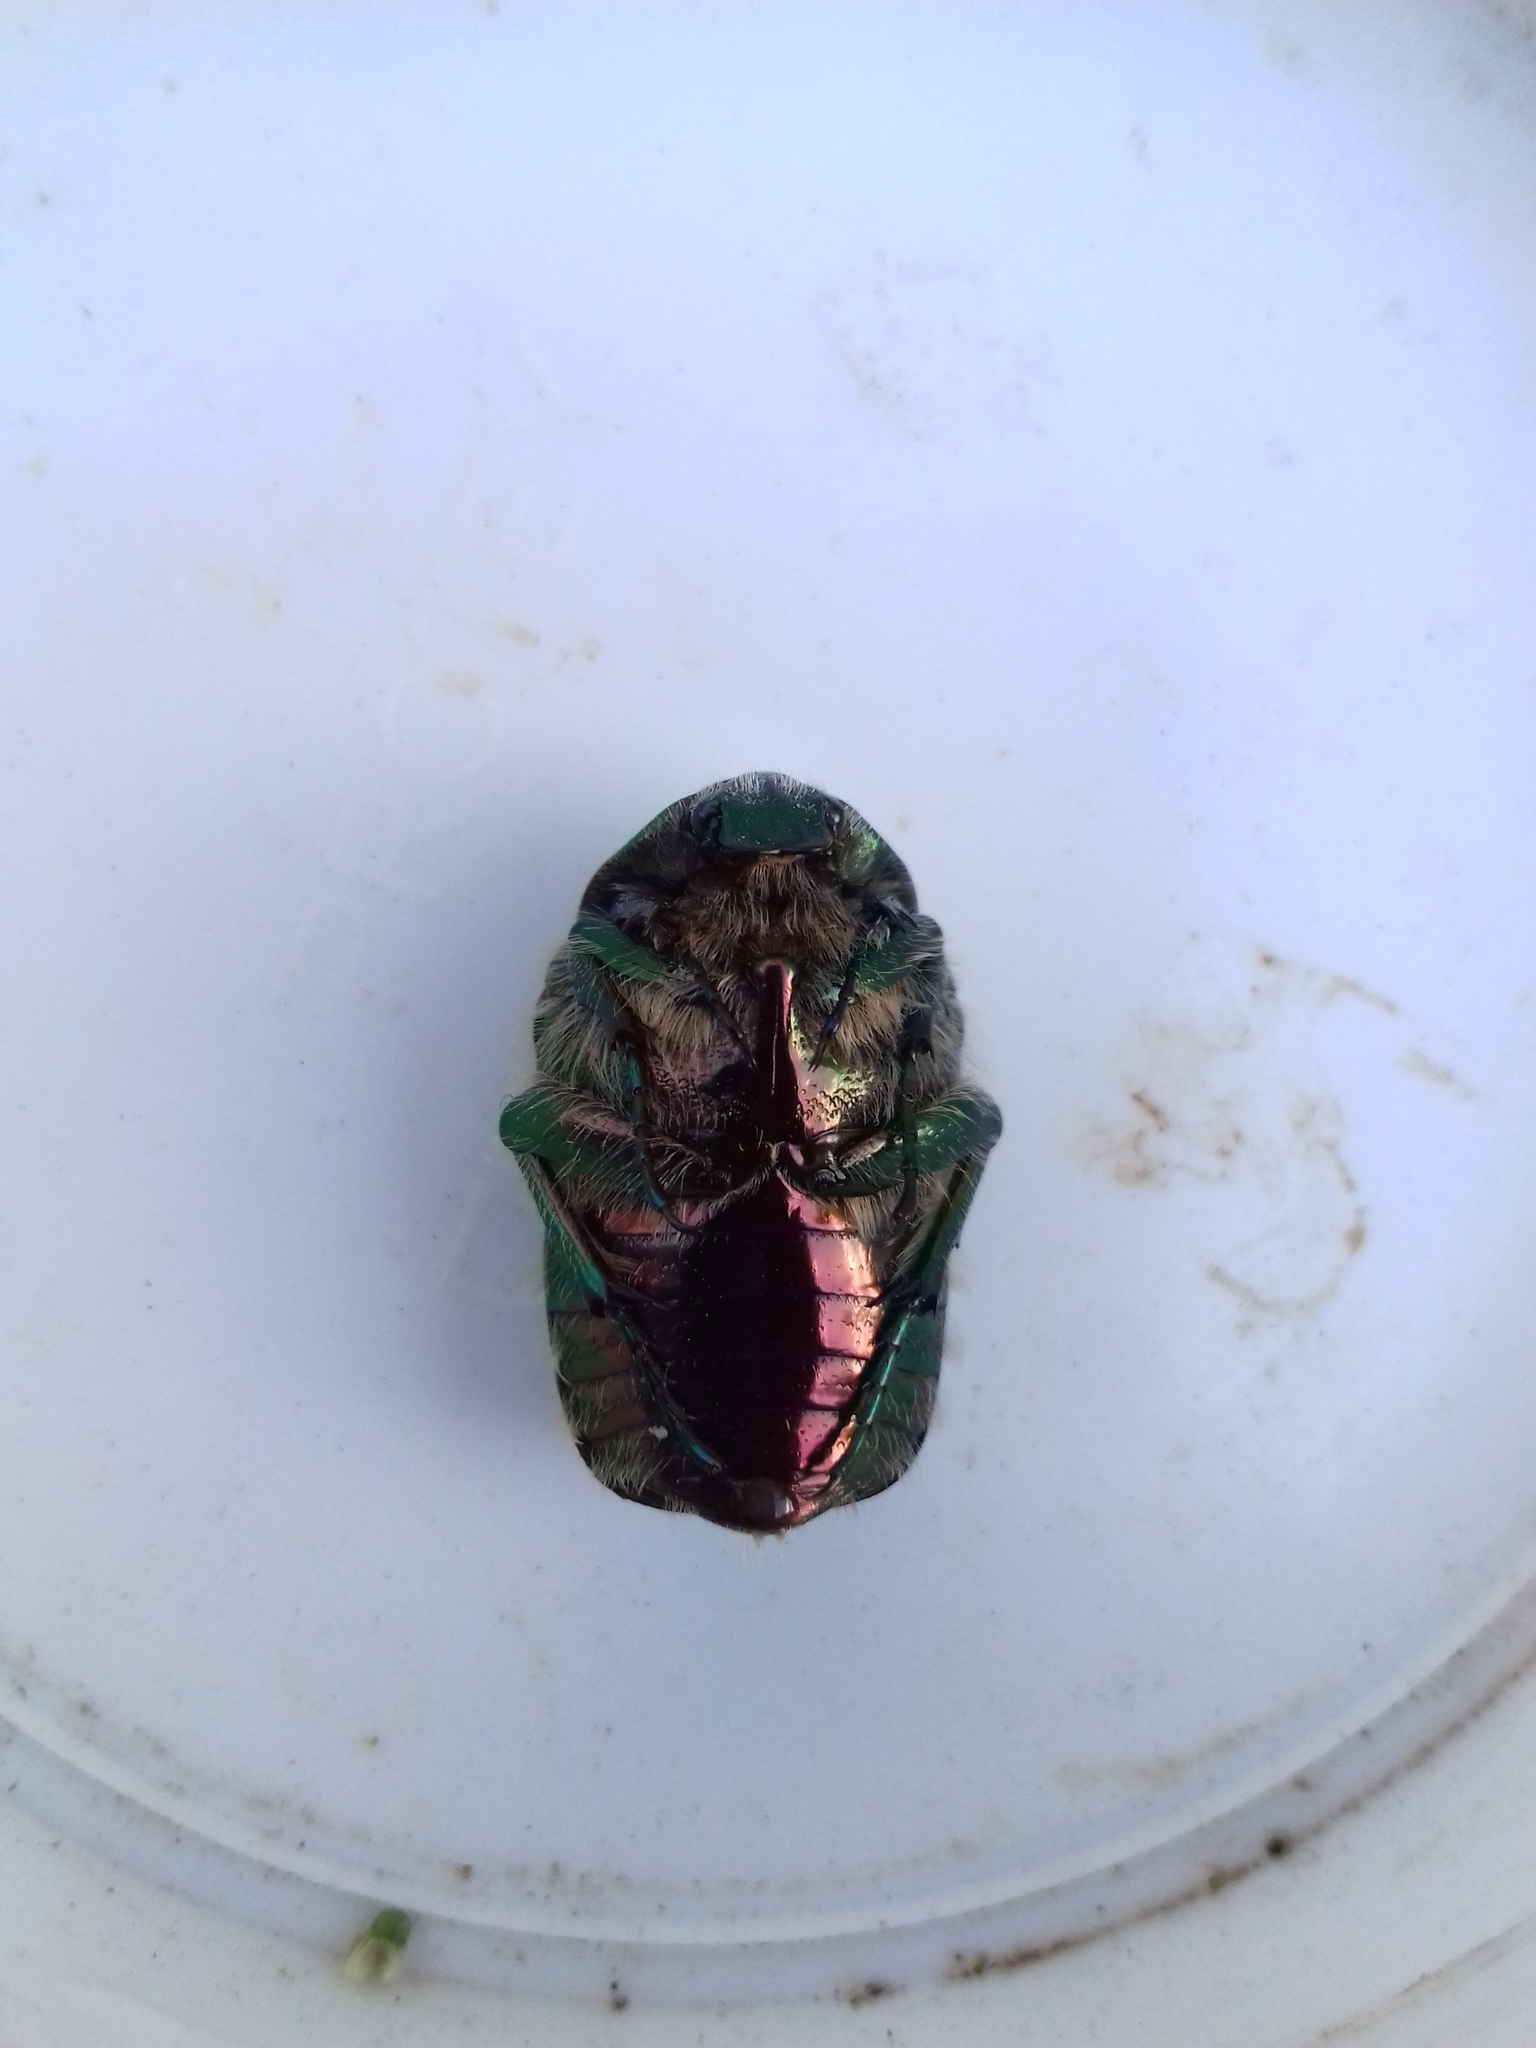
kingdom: Animalia
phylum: Arthropoda
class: Insecta
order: Coleoptera
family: Scarabaeidae
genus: Cetonia
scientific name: Cetonia aurata
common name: Rose chafer
